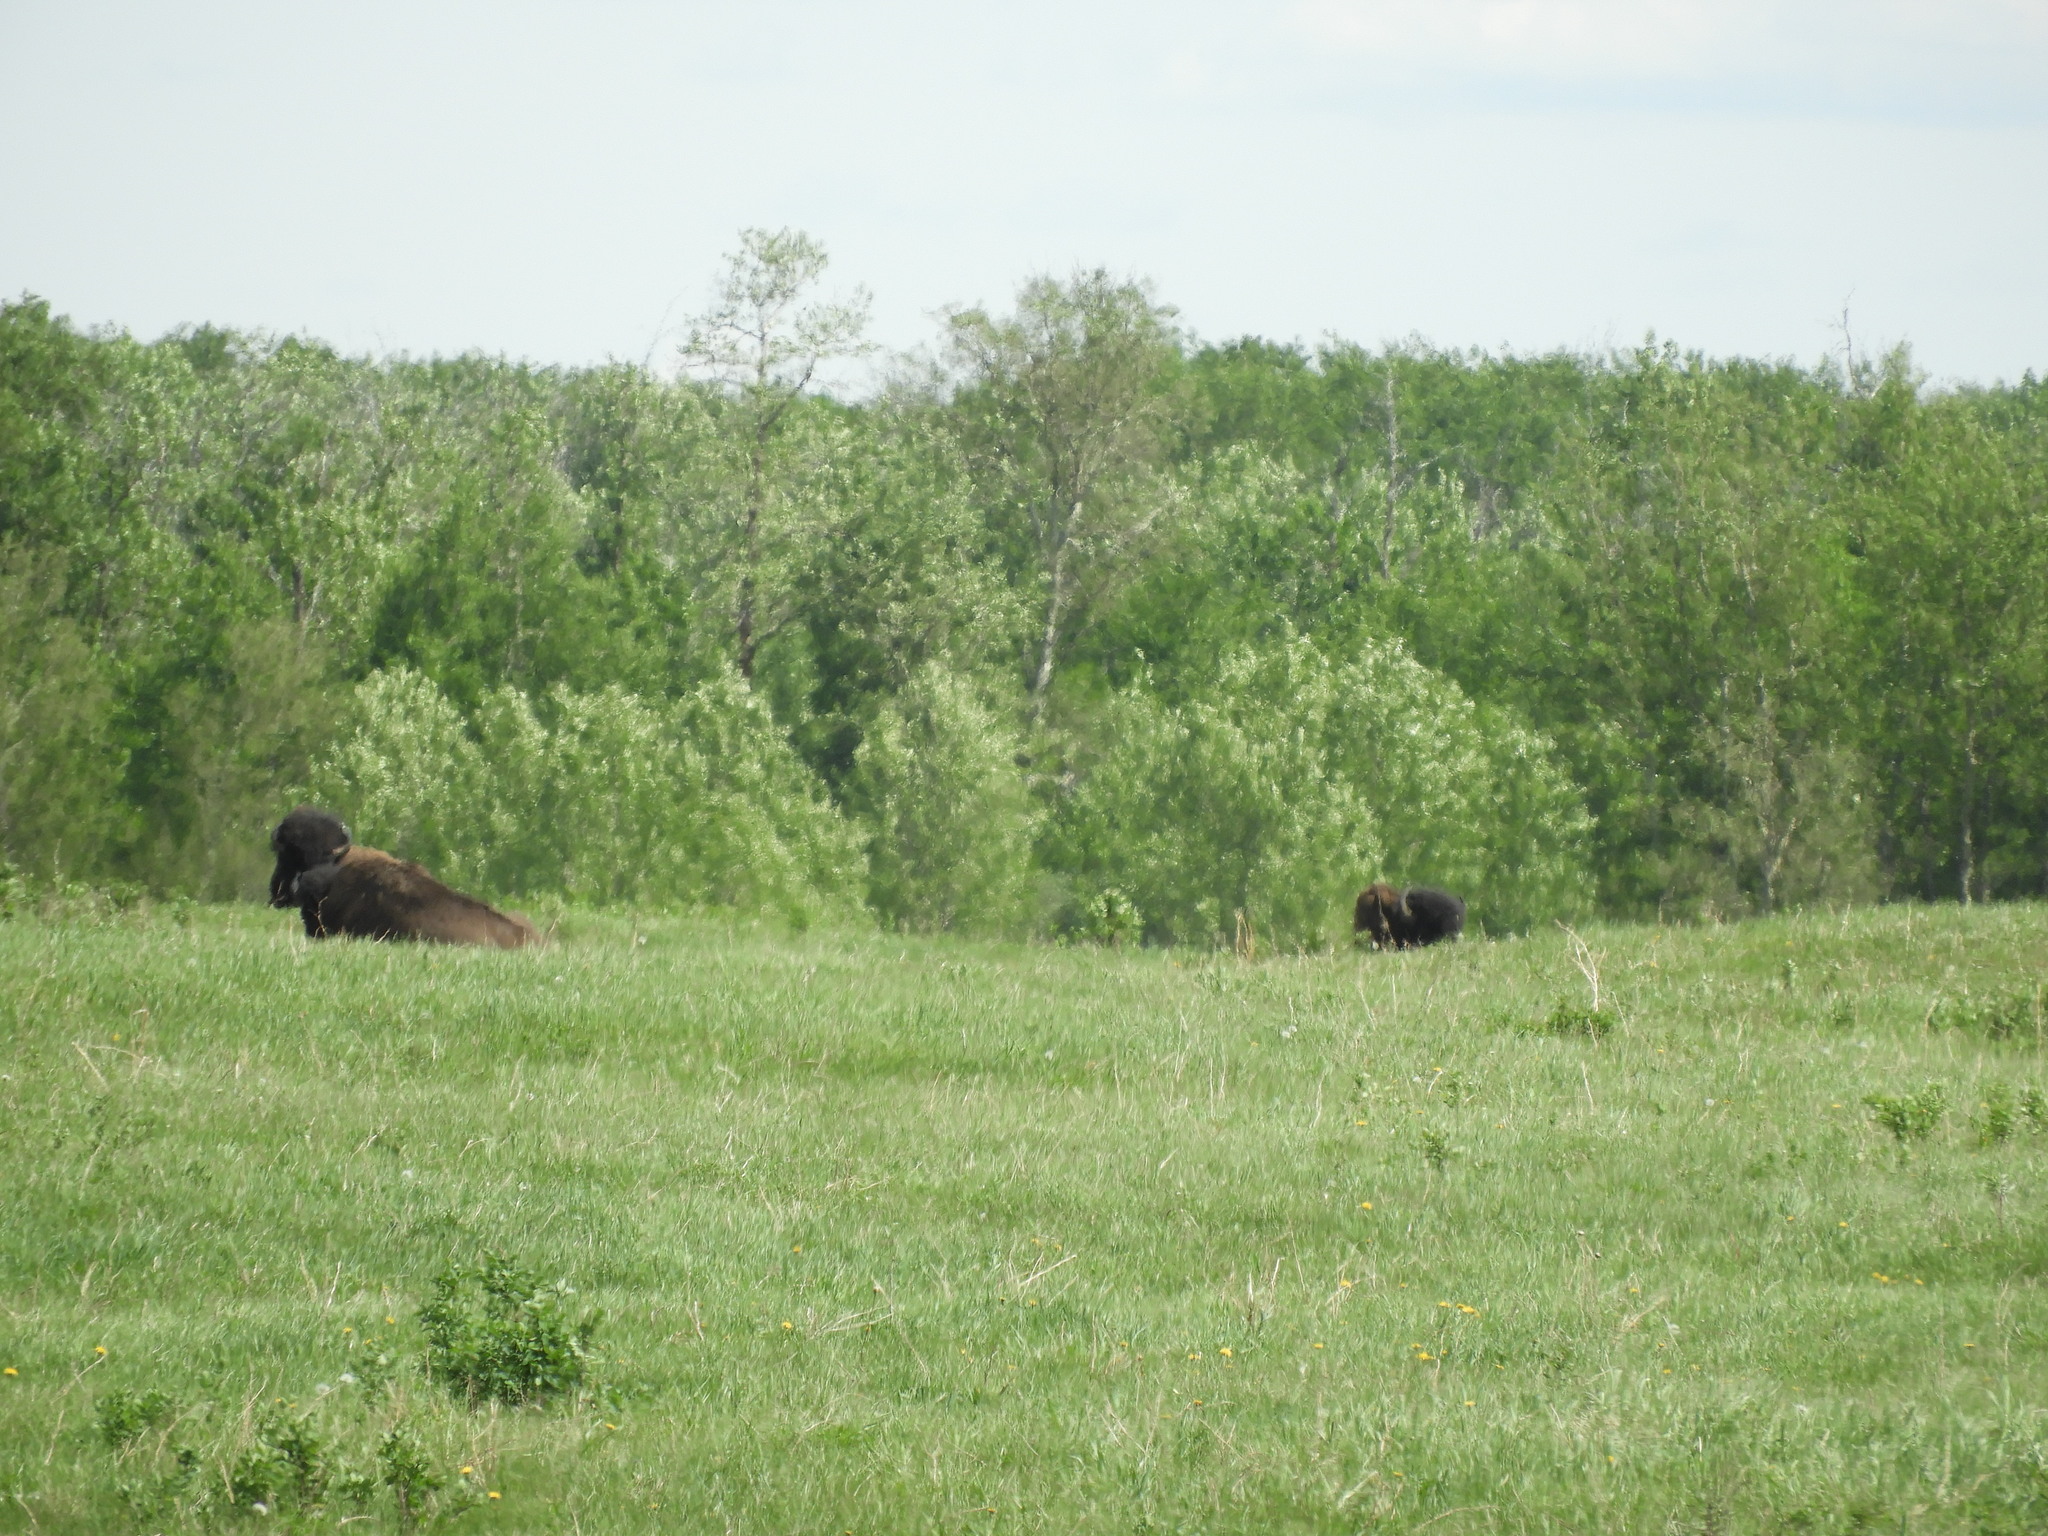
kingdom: Animalia
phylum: Chordata
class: Mammalia
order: Artiodactyla
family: Bovidae
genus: Bison
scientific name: Bison bison
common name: American bison
